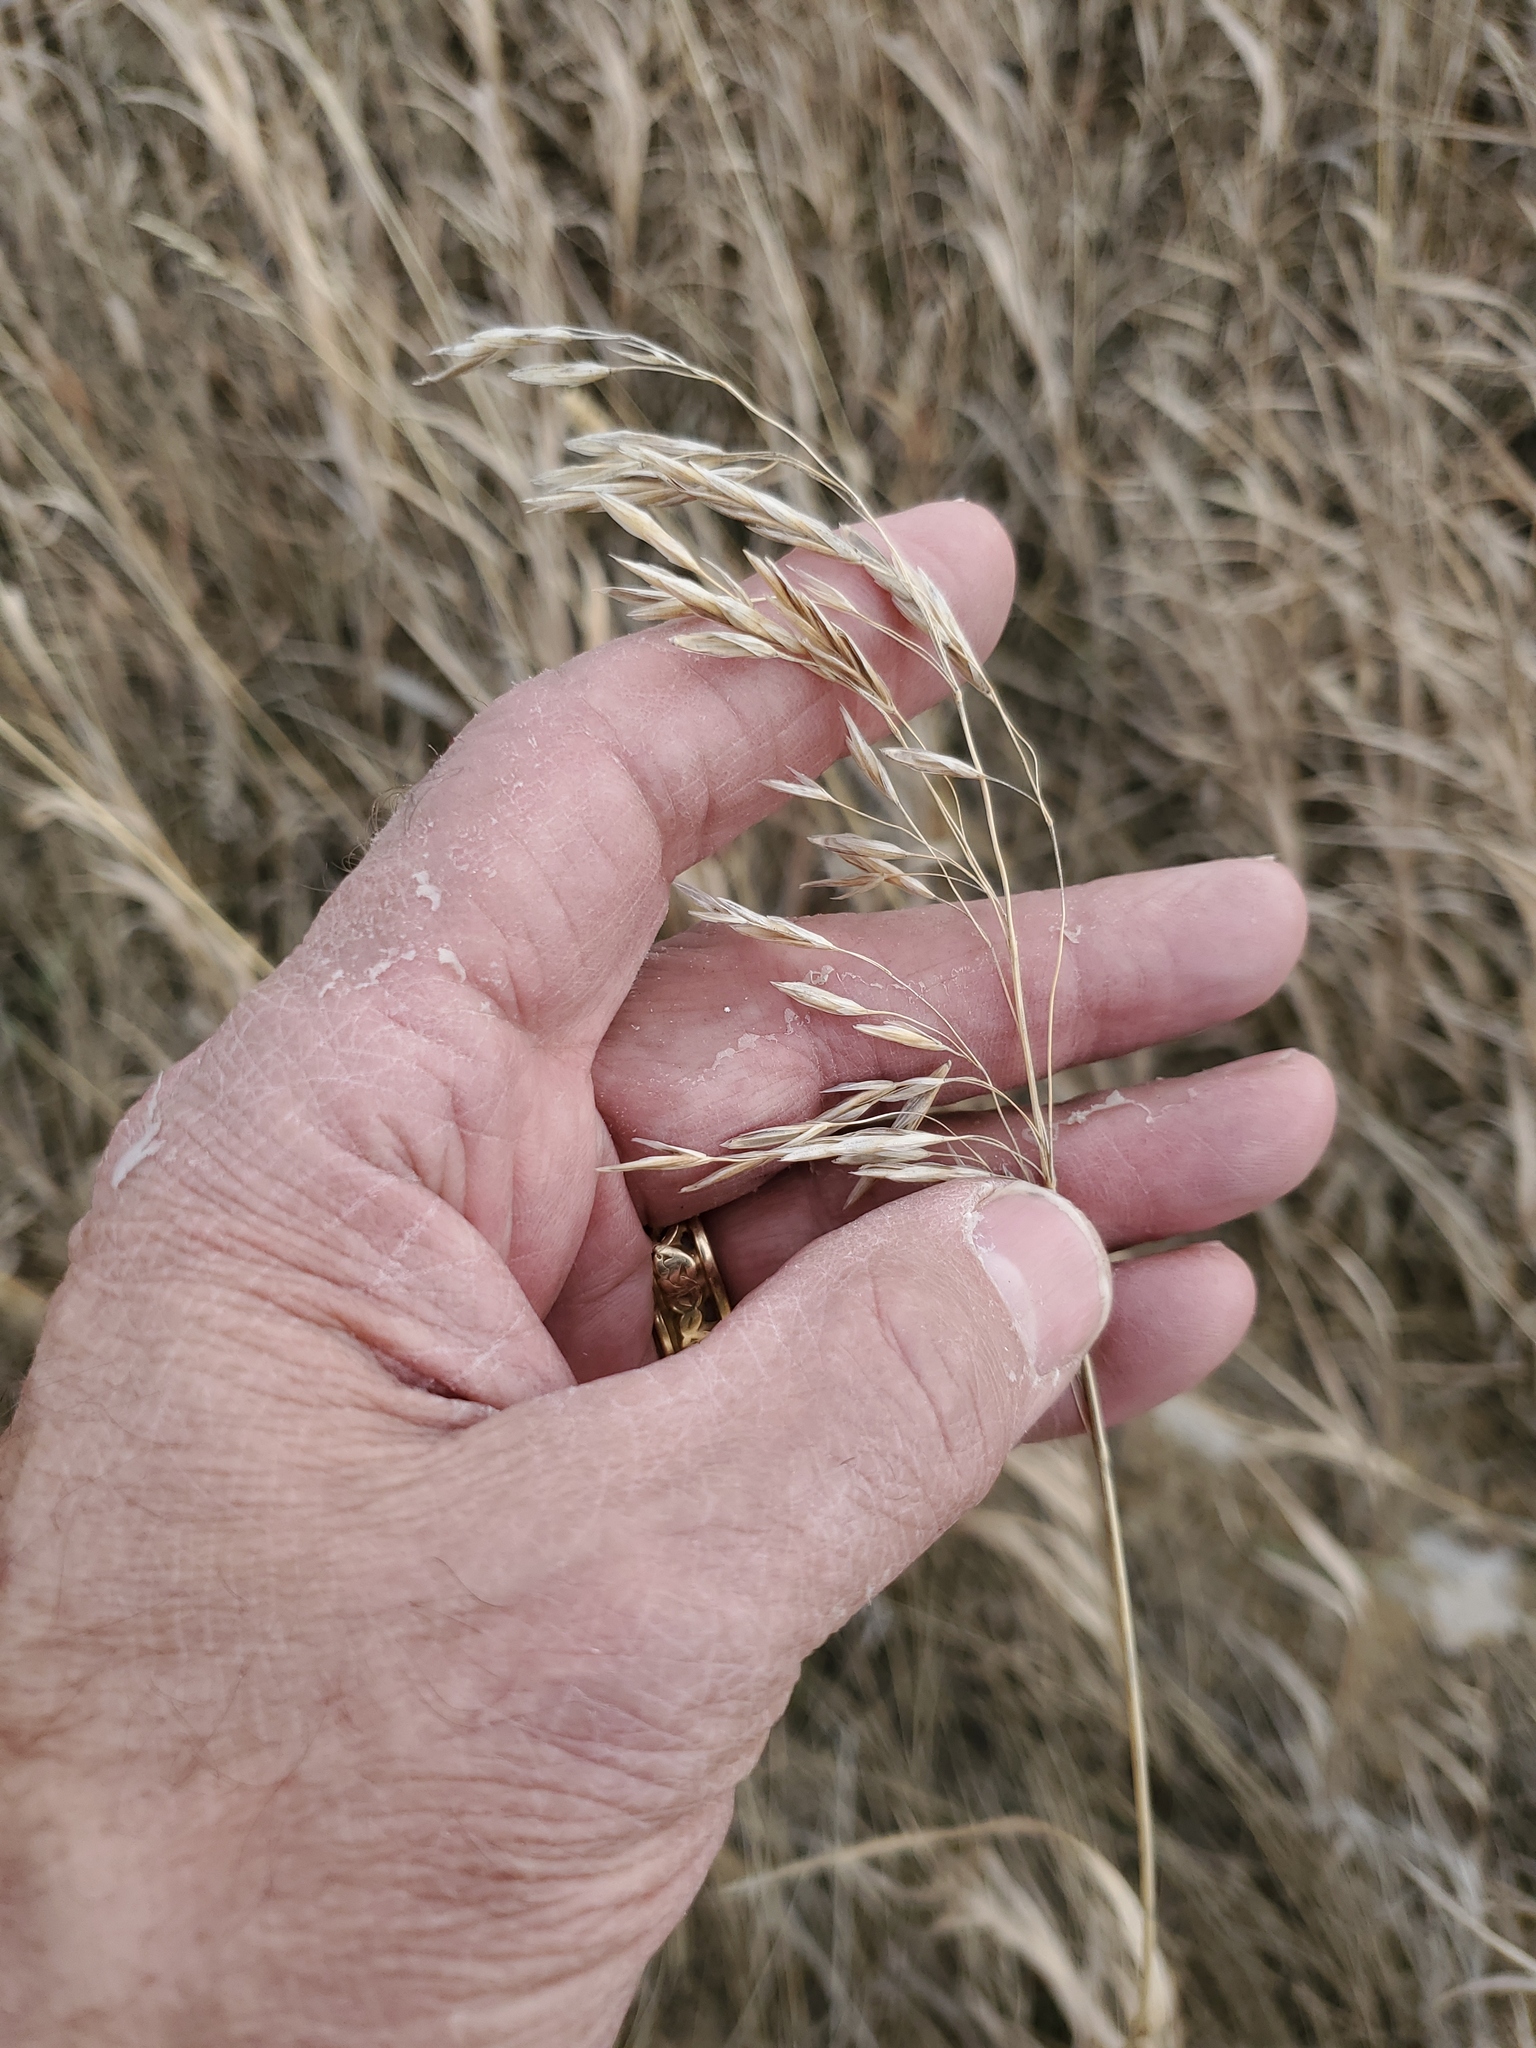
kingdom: Plantae
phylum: Tracheophyta
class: Liliopsida
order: Poales
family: Poaceae
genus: Bromus
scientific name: Bromus inermis
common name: Smooth brome
